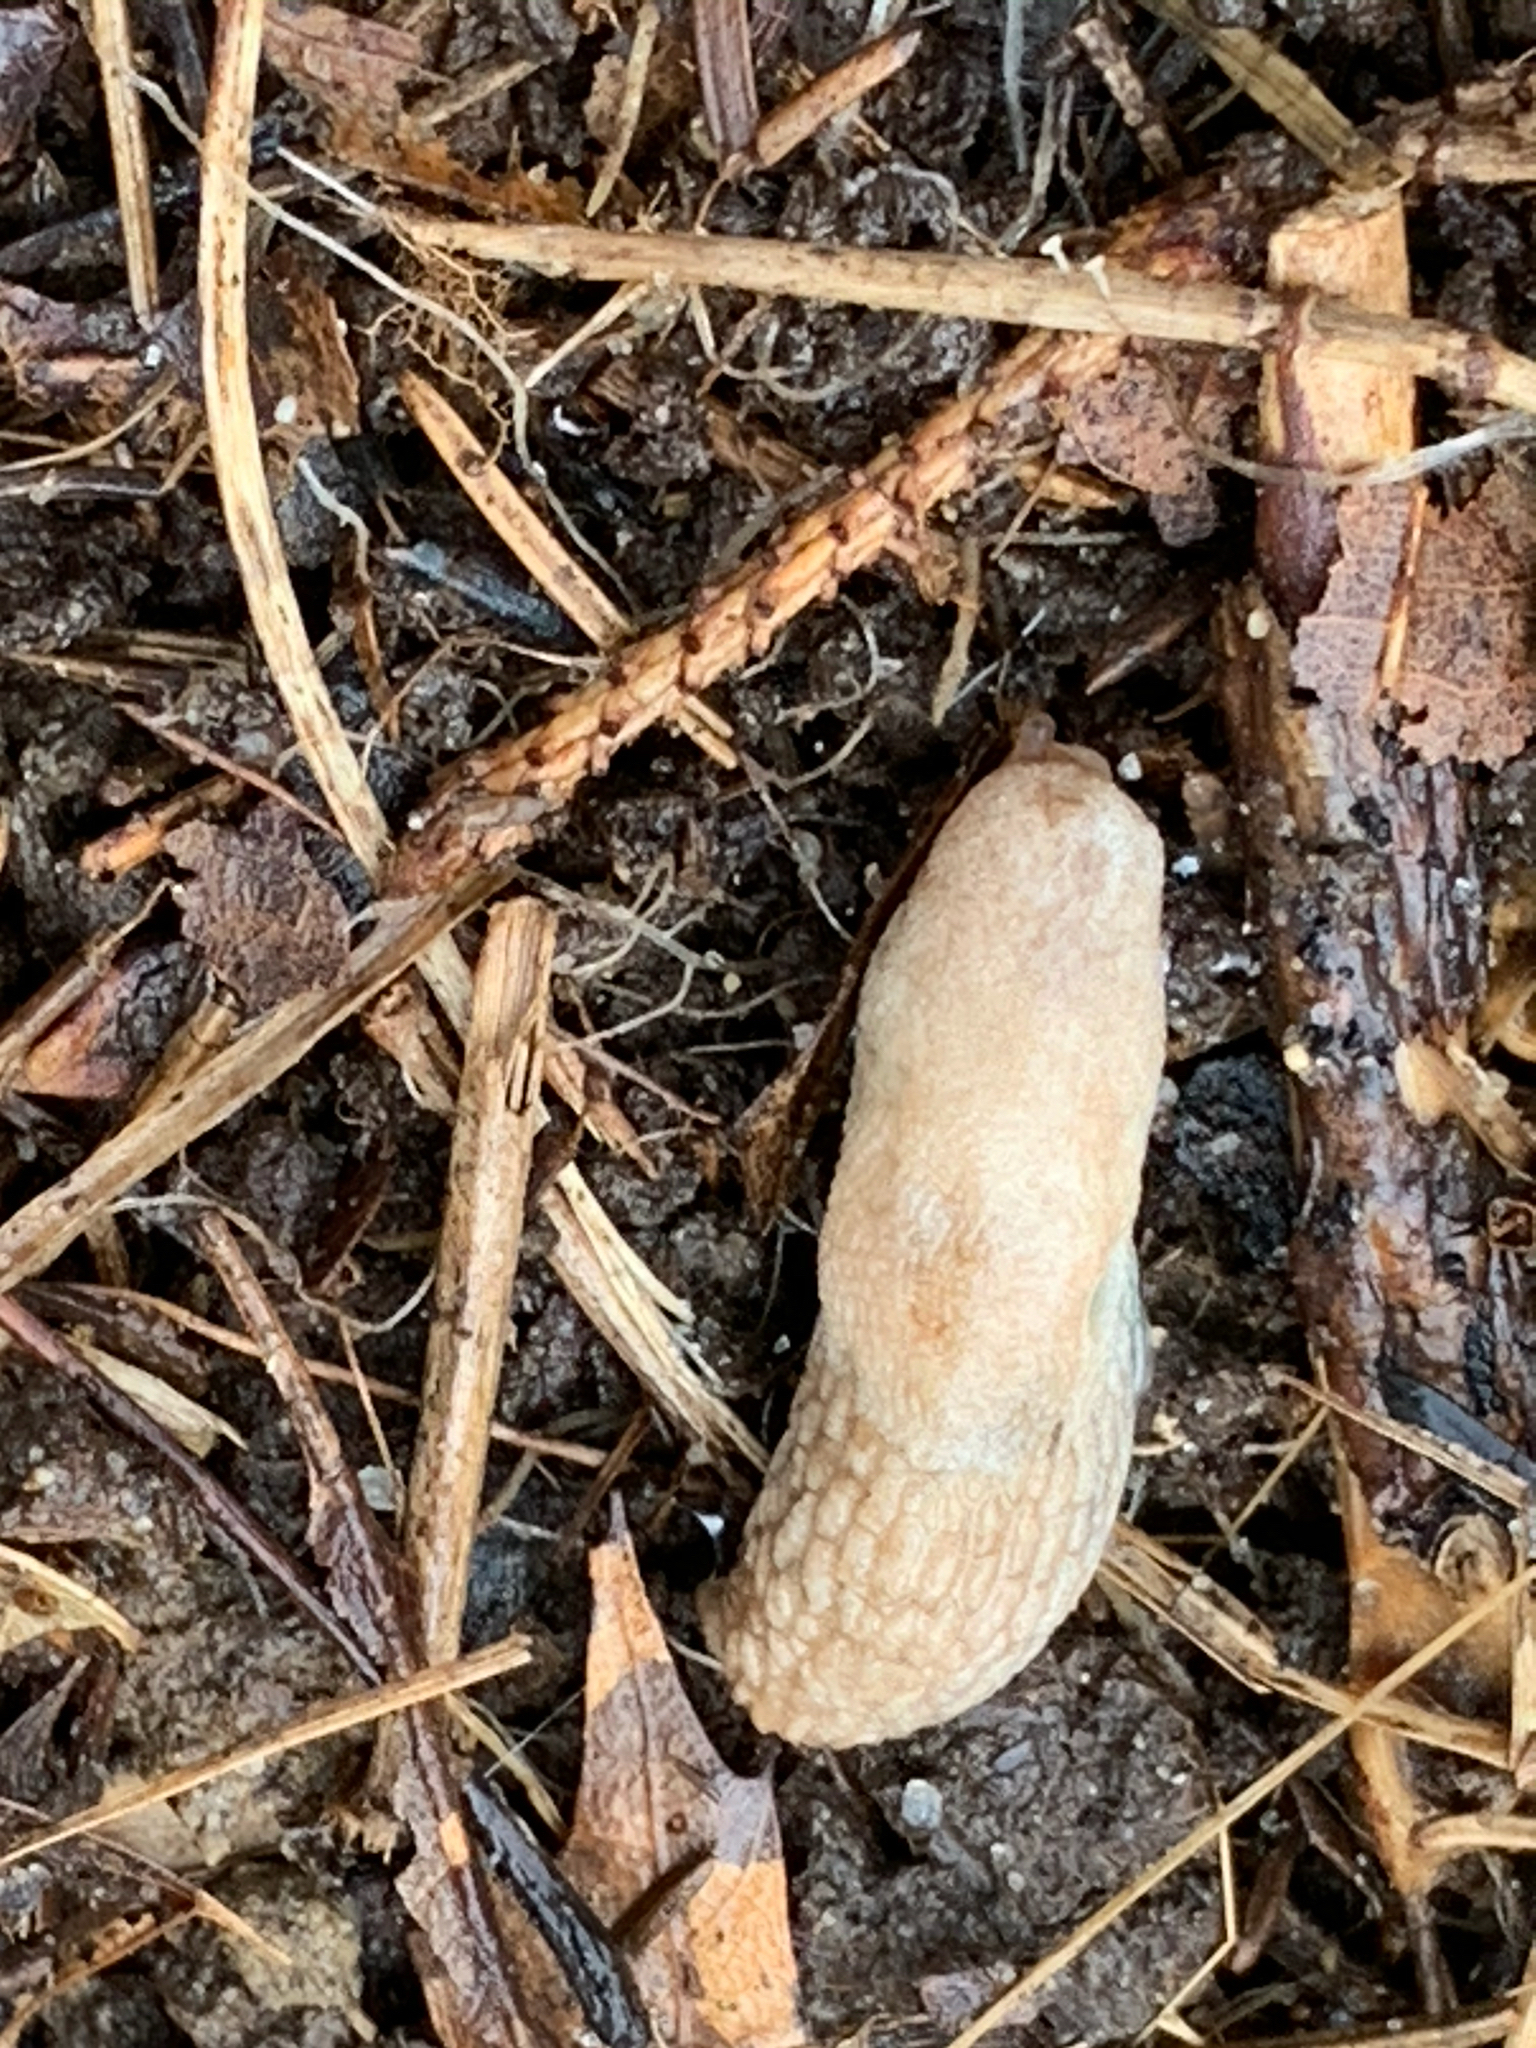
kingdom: Animalia
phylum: Mollusca
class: Gastropoda
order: Stylommatophora
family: Agriolimacidae
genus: Deroceras
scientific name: Deroceras reticulatum
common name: Gray field slug
